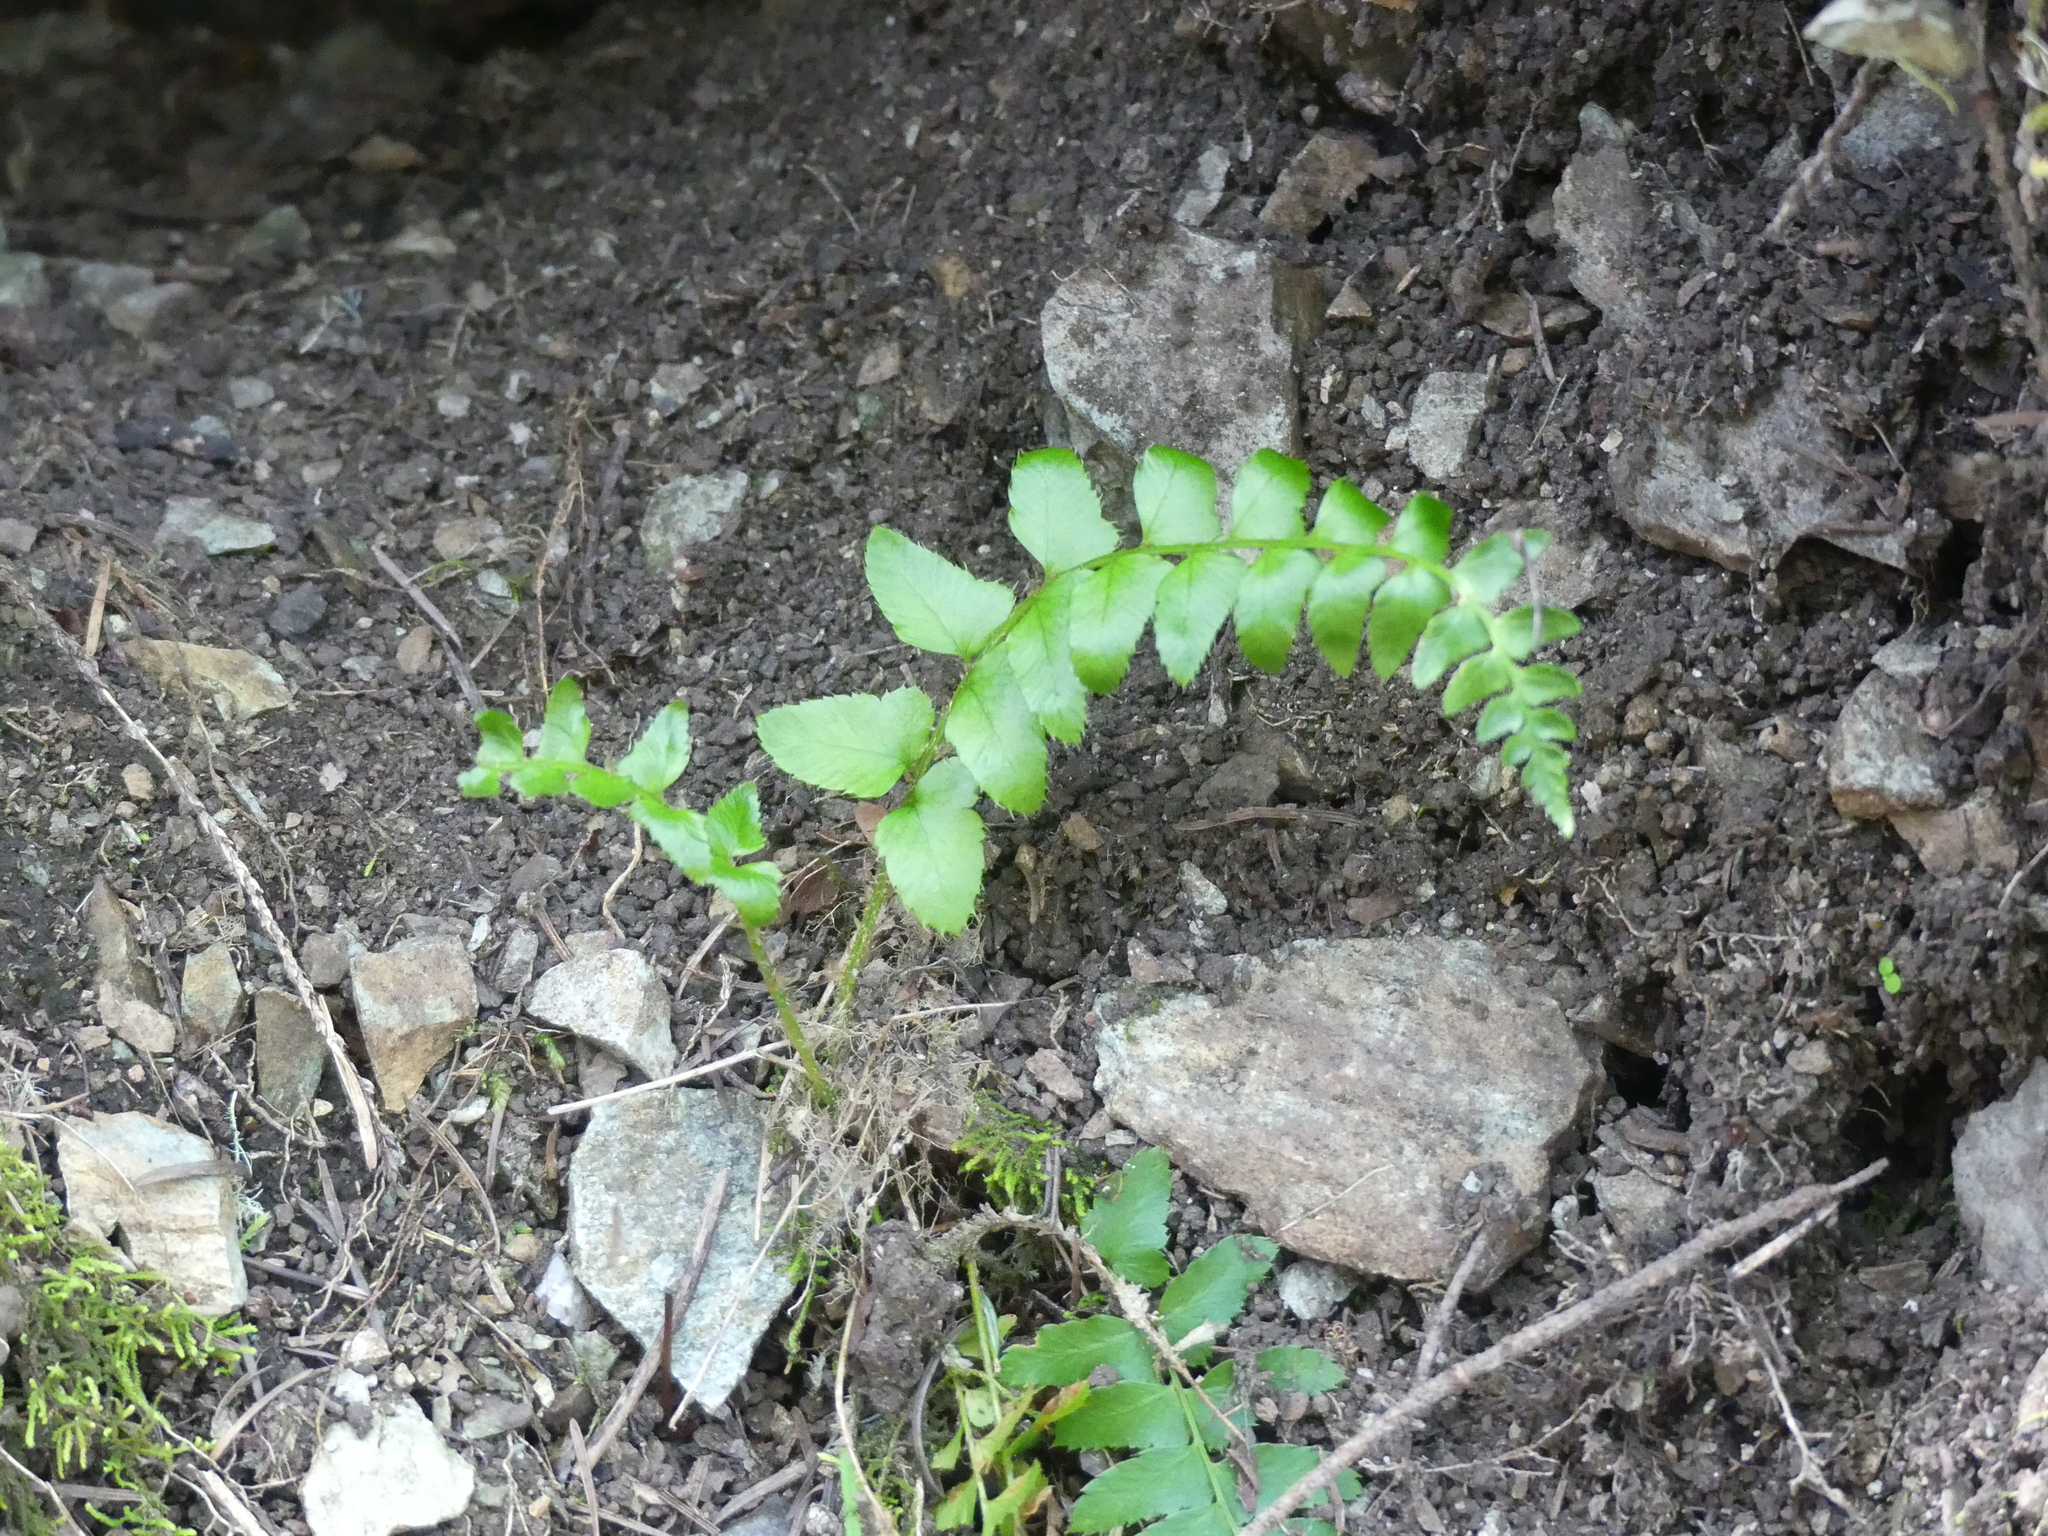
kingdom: Plantae
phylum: Tracheophyta
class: Polypodiopsida
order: Polypodiales
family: Dryopteridaceae
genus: Polystichum
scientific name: Polystichum munitum
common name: Western sword-fern
